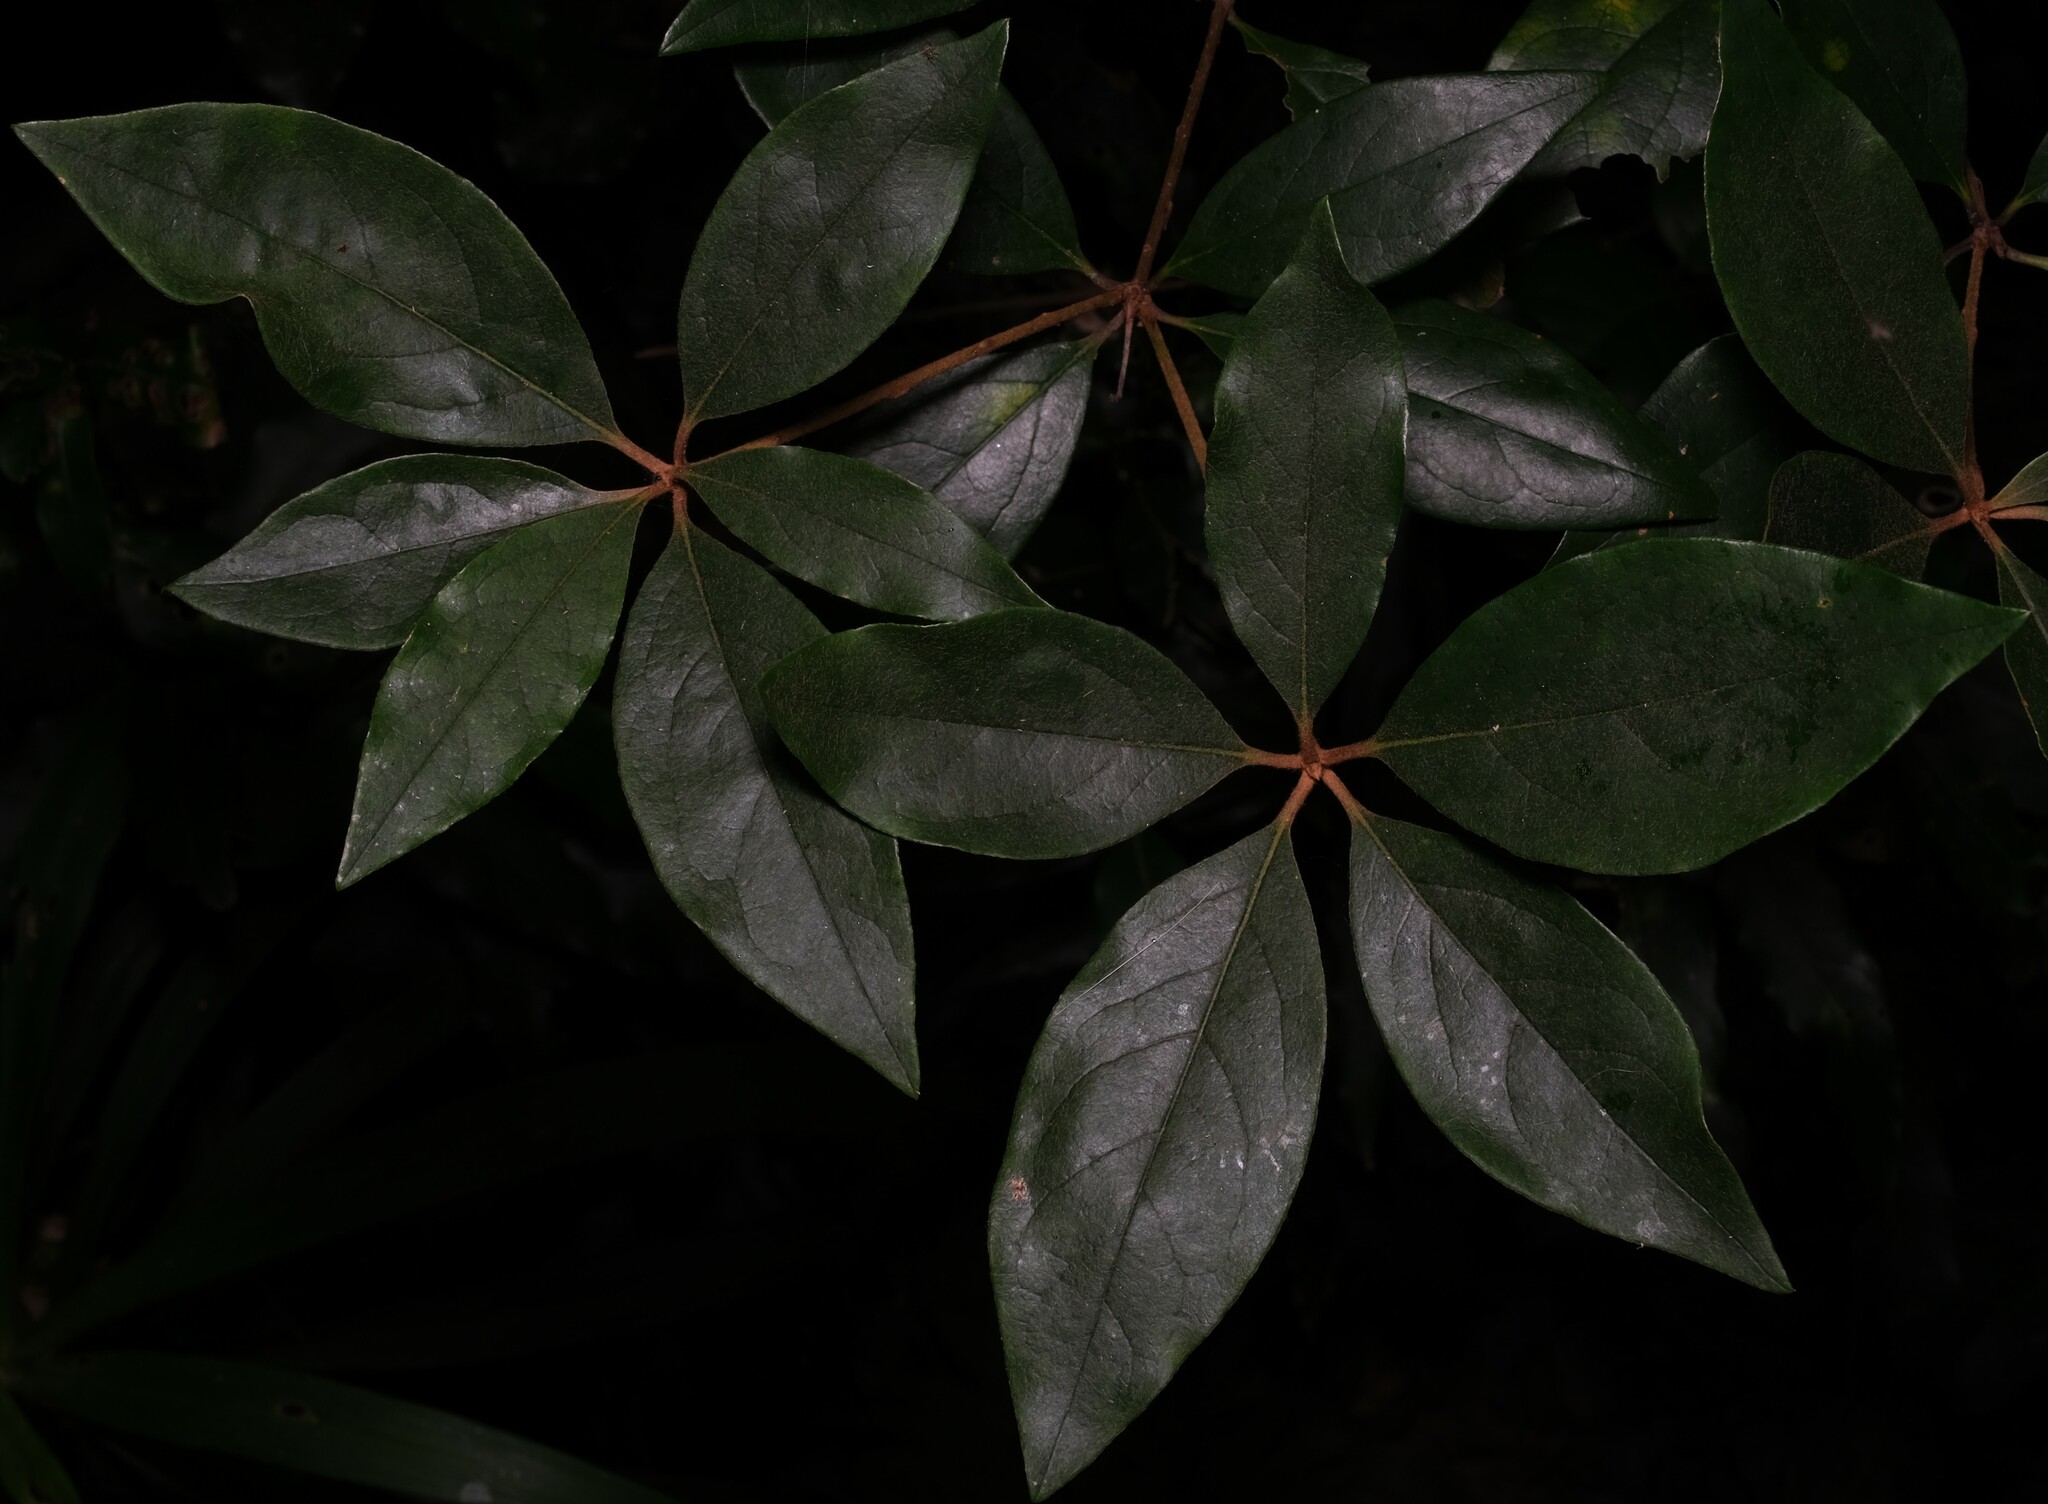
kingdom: Plantae
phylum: Tracheophyta
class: Magnoliopsida
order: Apiales
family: Pittosporaceae
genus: Pittosporum
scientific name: Pittosporum revolutum
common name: Brisbane-laurel
